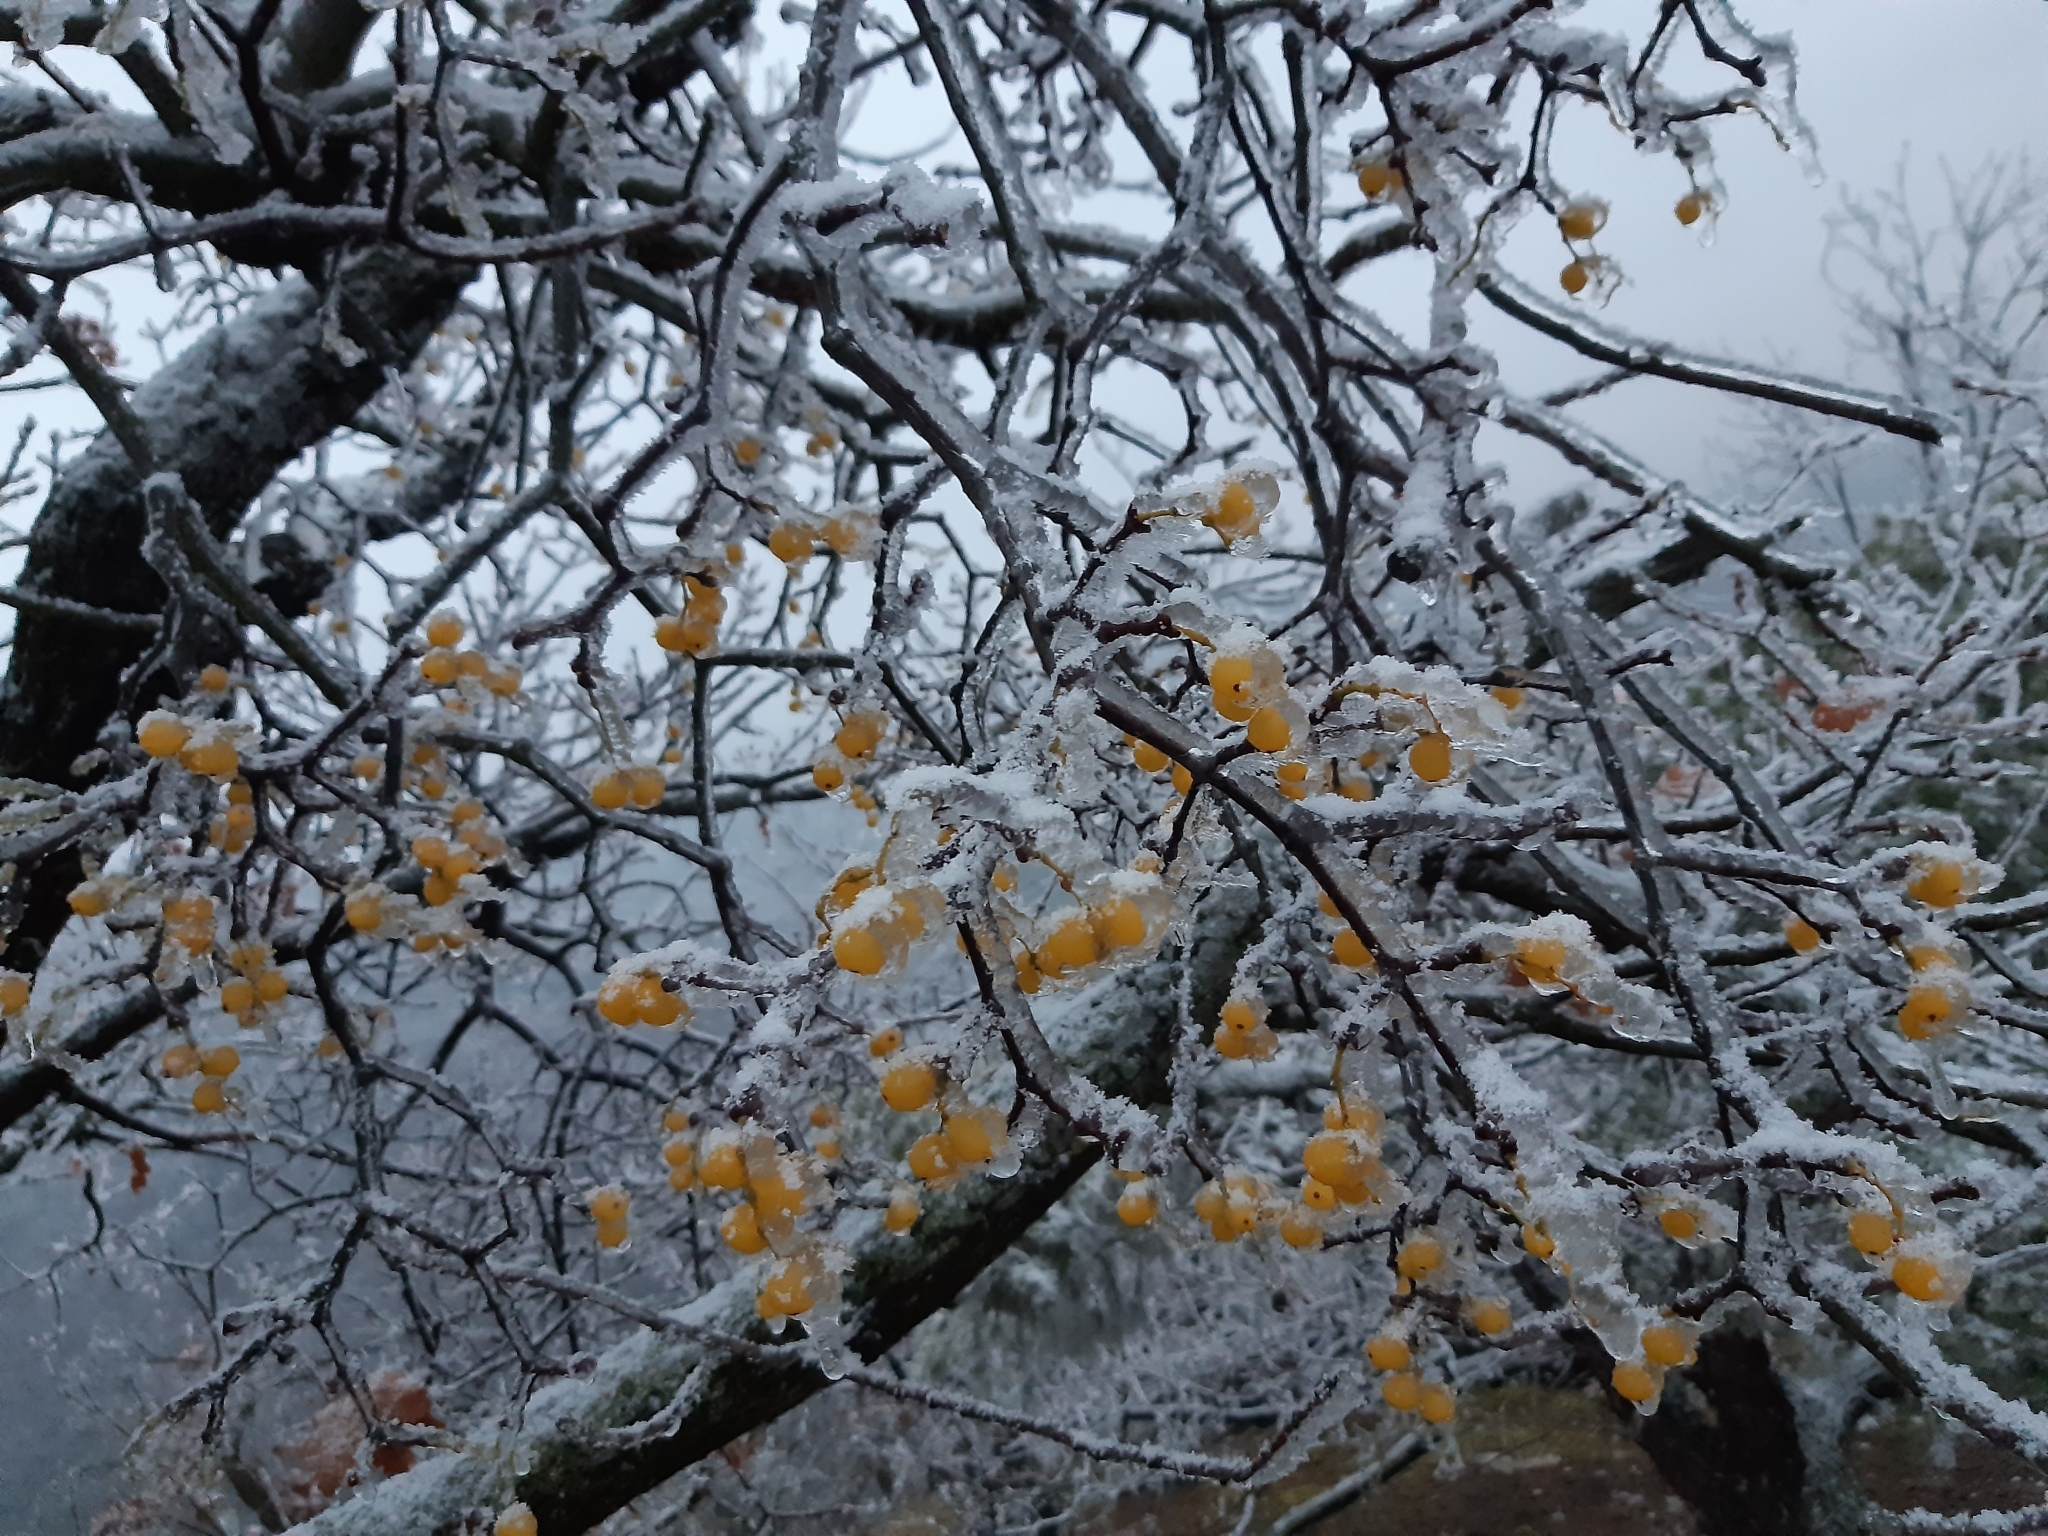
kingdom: Plantae
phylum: Tracheophyta
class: Magnoliopsida
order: Santalales
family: Loranthaceae
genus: Loranthus
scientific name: Loranthus europaeus
